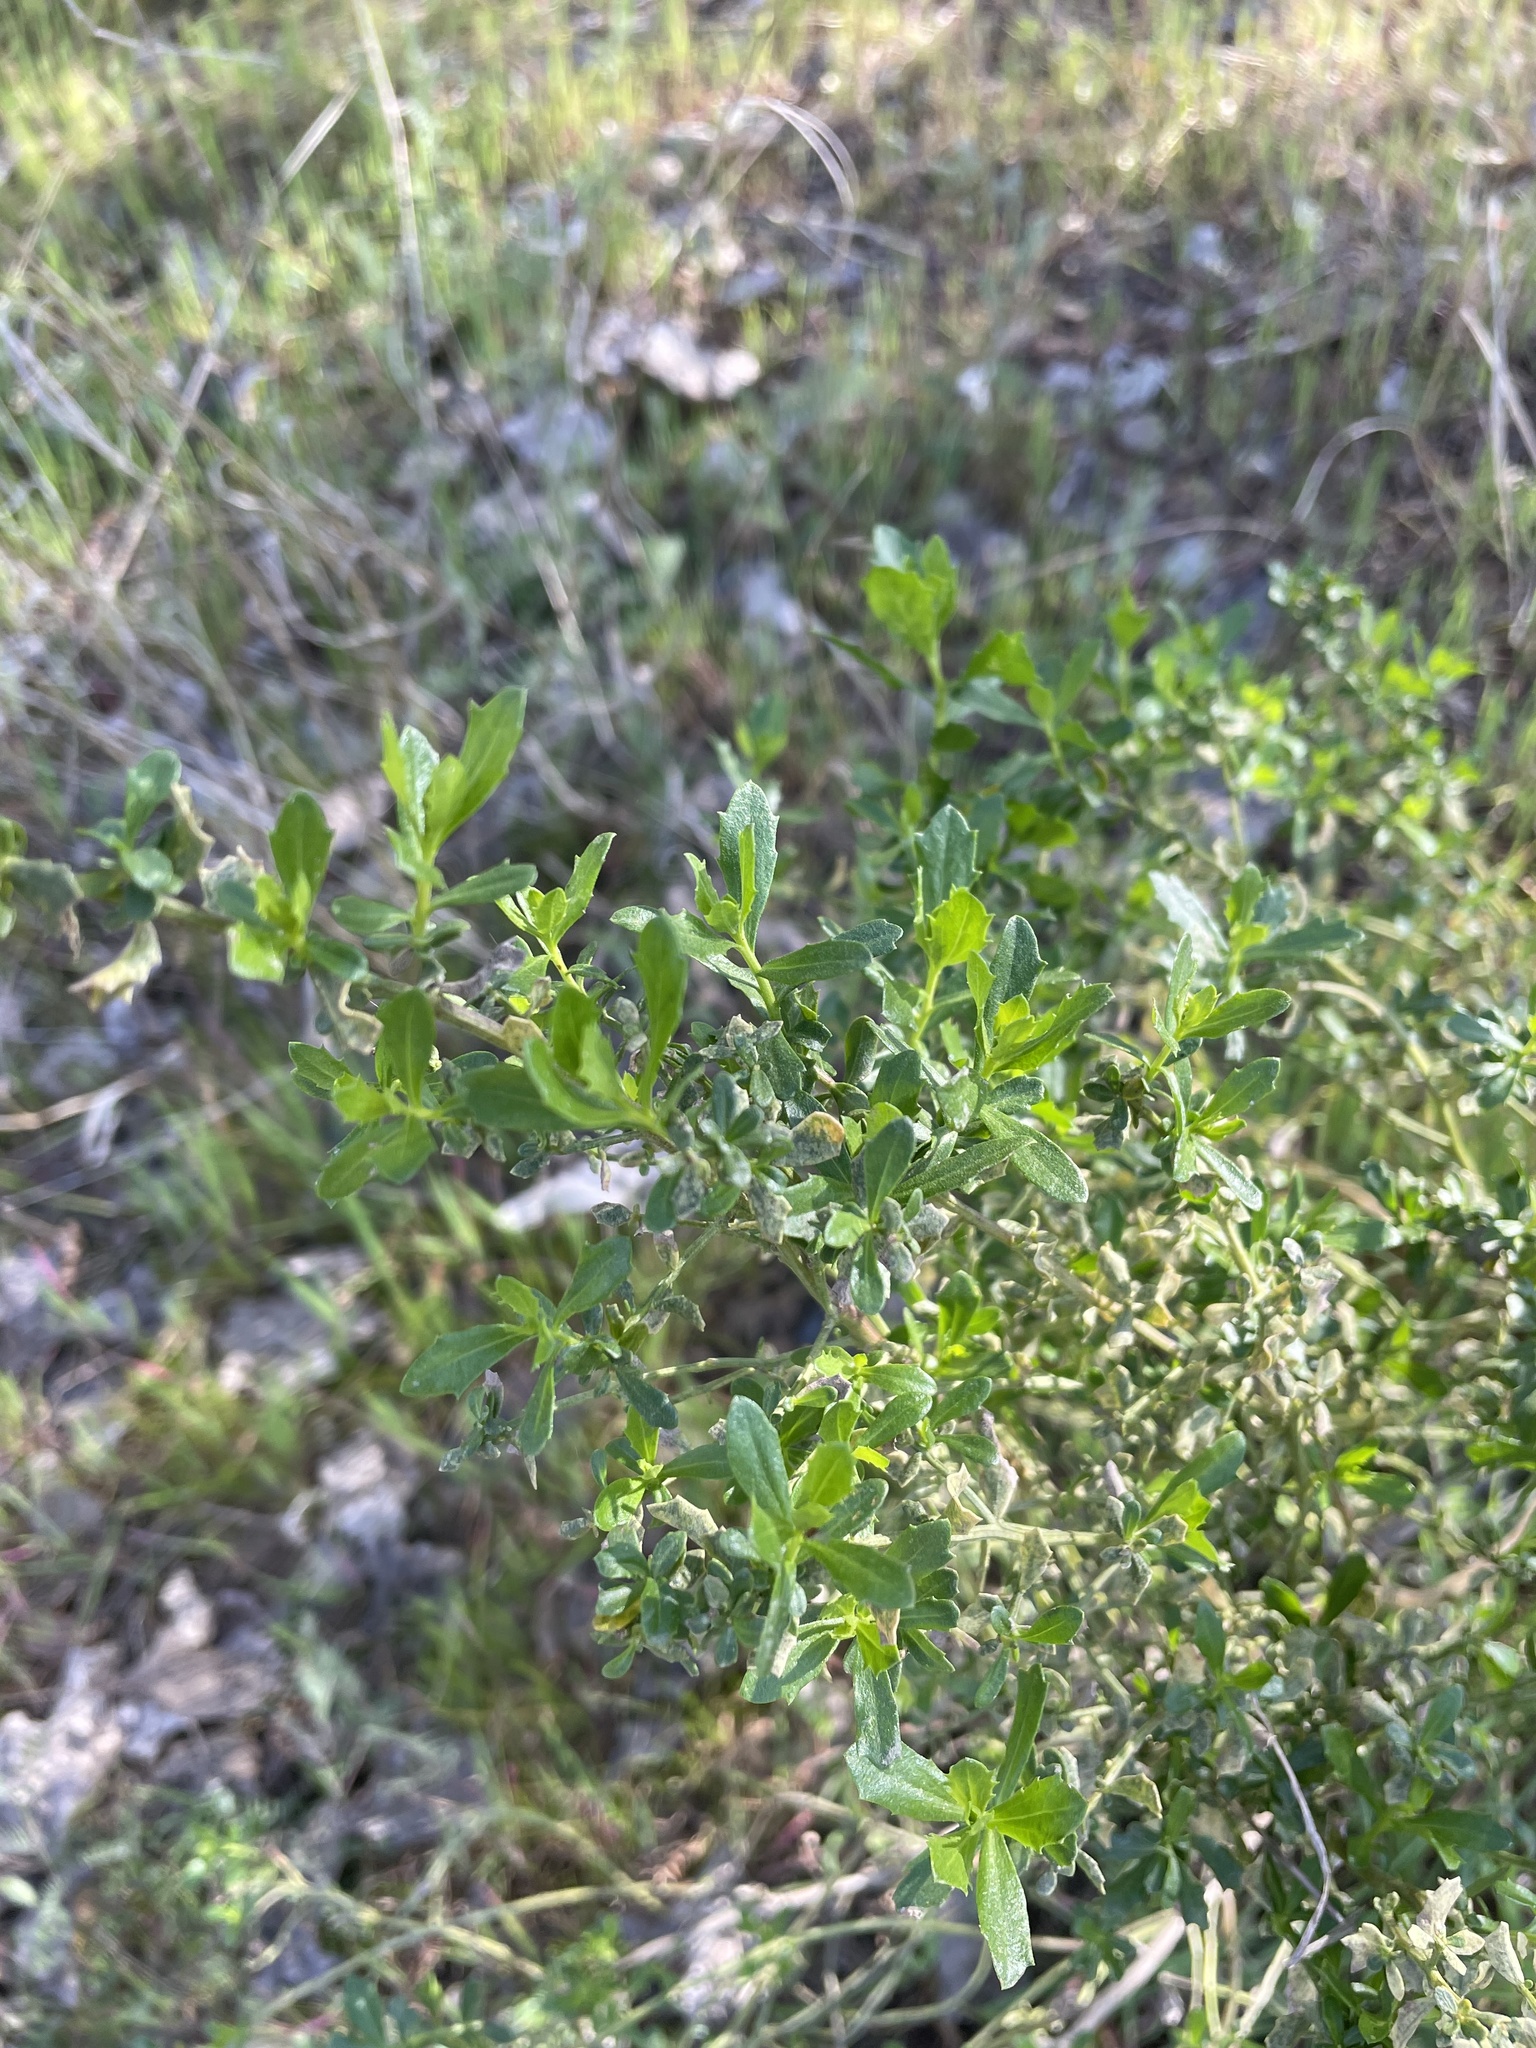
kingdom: Plantae
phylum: Tracheophyta
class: Magnoliopsida
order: Asterales
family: Asteraceae
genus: Baccharis
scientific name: Baccharis pilularis
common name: Coyotebrush
